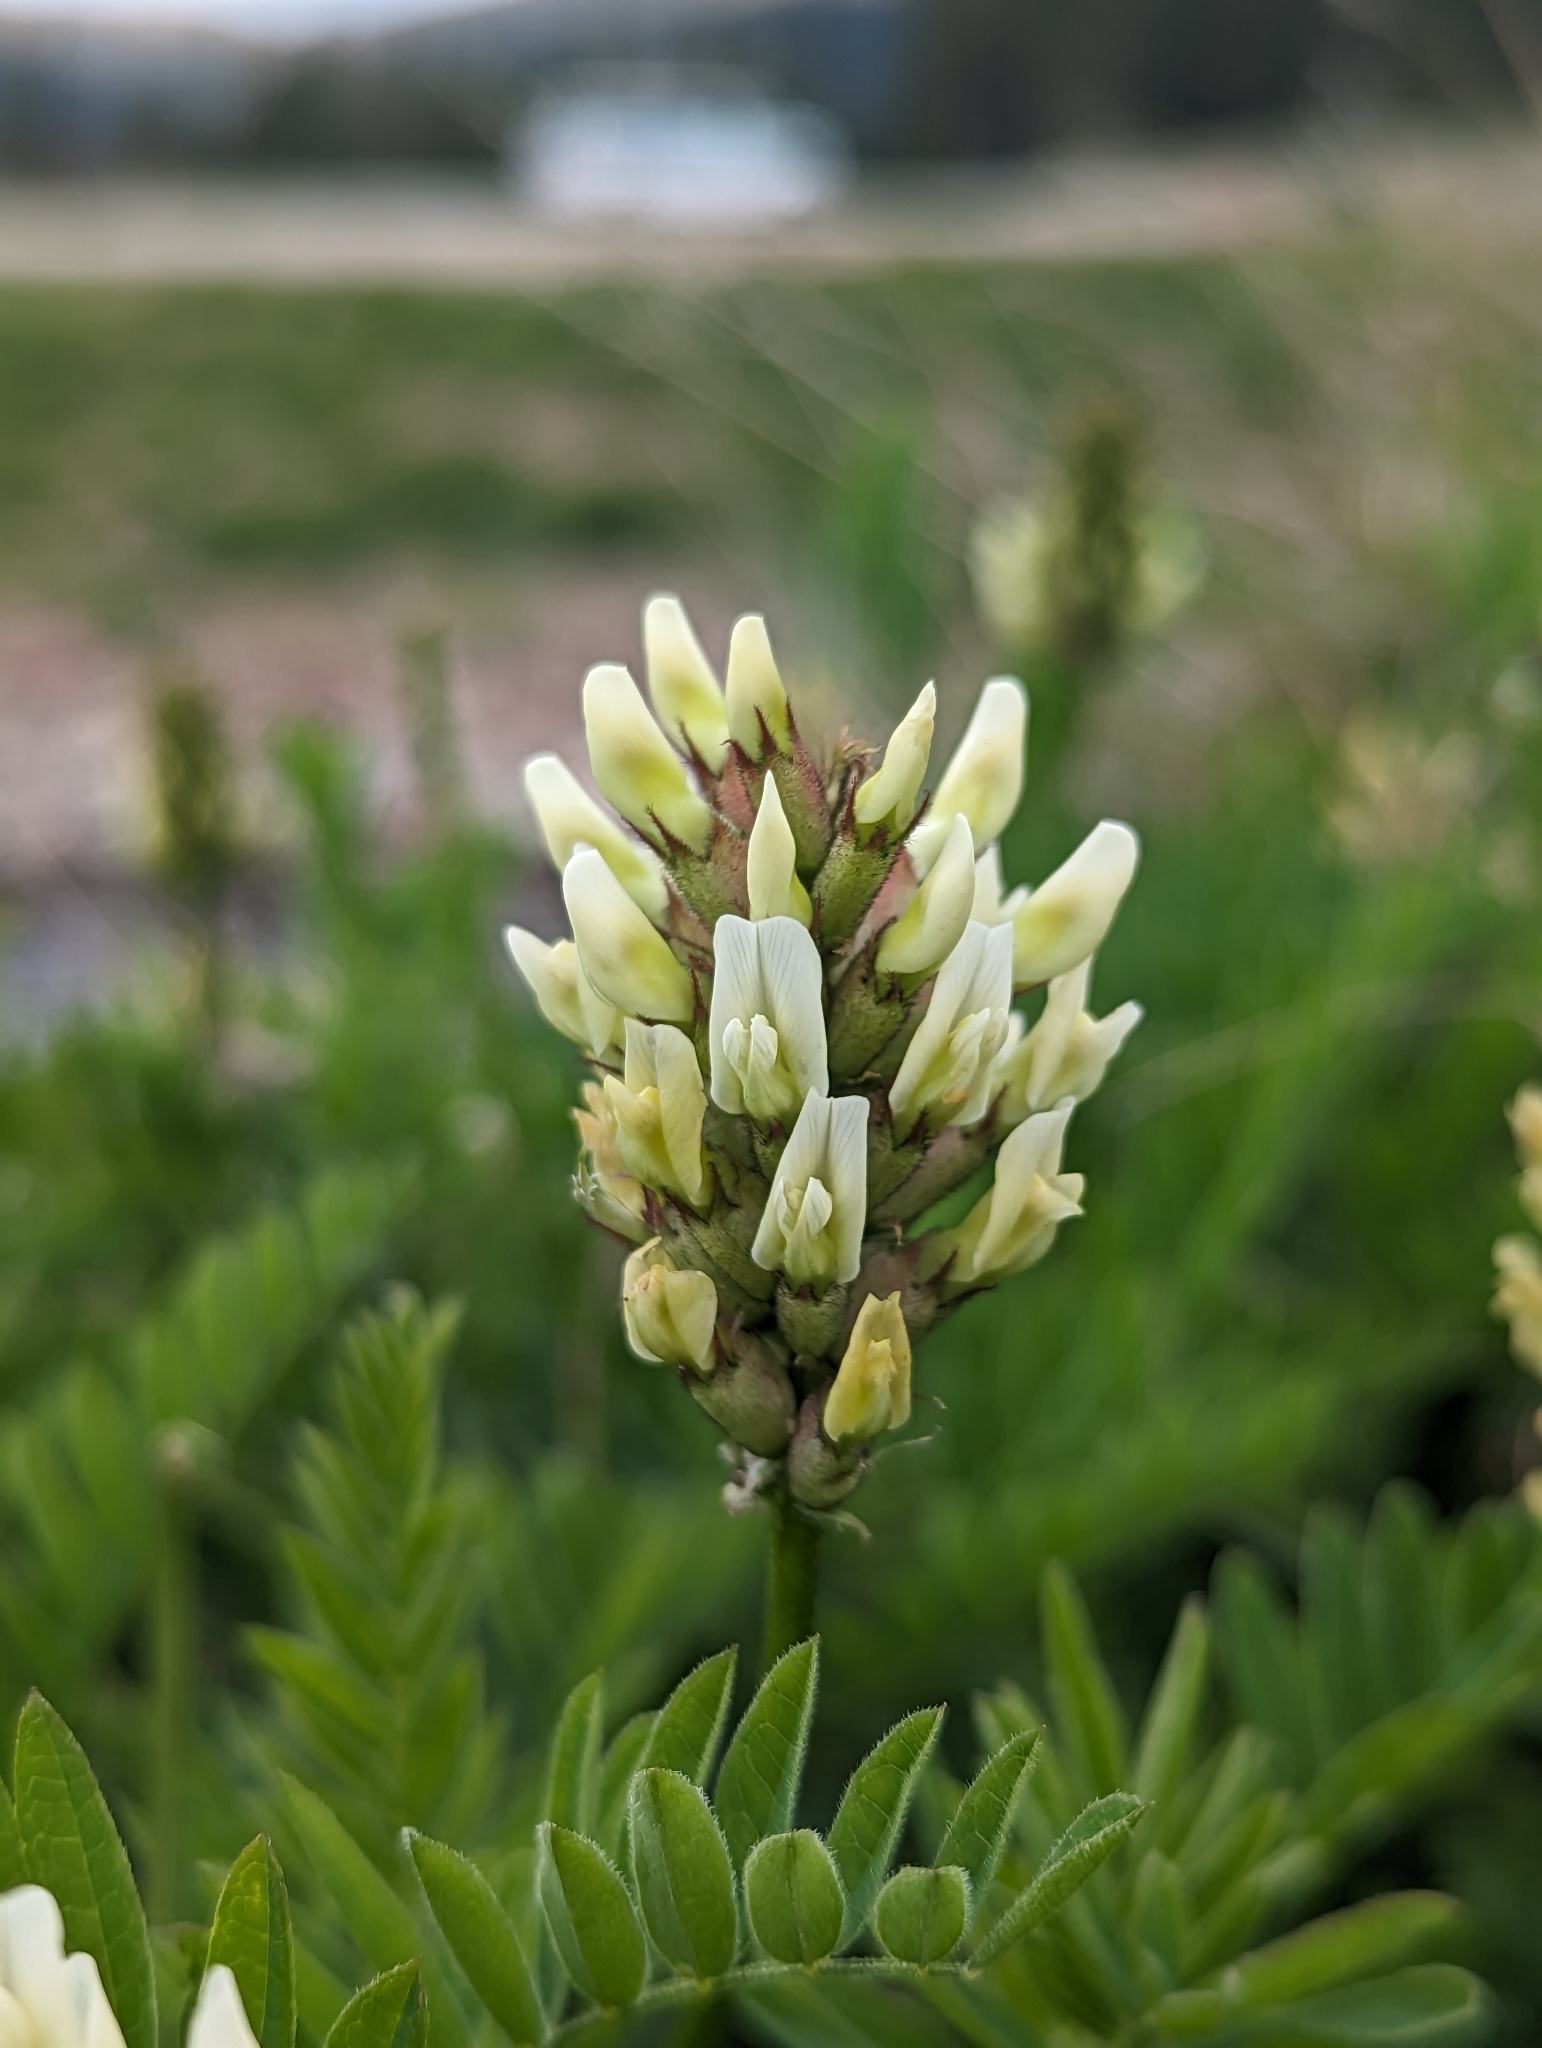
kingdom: Plantae
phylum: Tracheophyta
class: Magnoliopsida
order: Fabales
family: Fabaceae
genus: Astragalus
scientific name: Astragalus cicer
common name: Chick-pea milk-vetch
